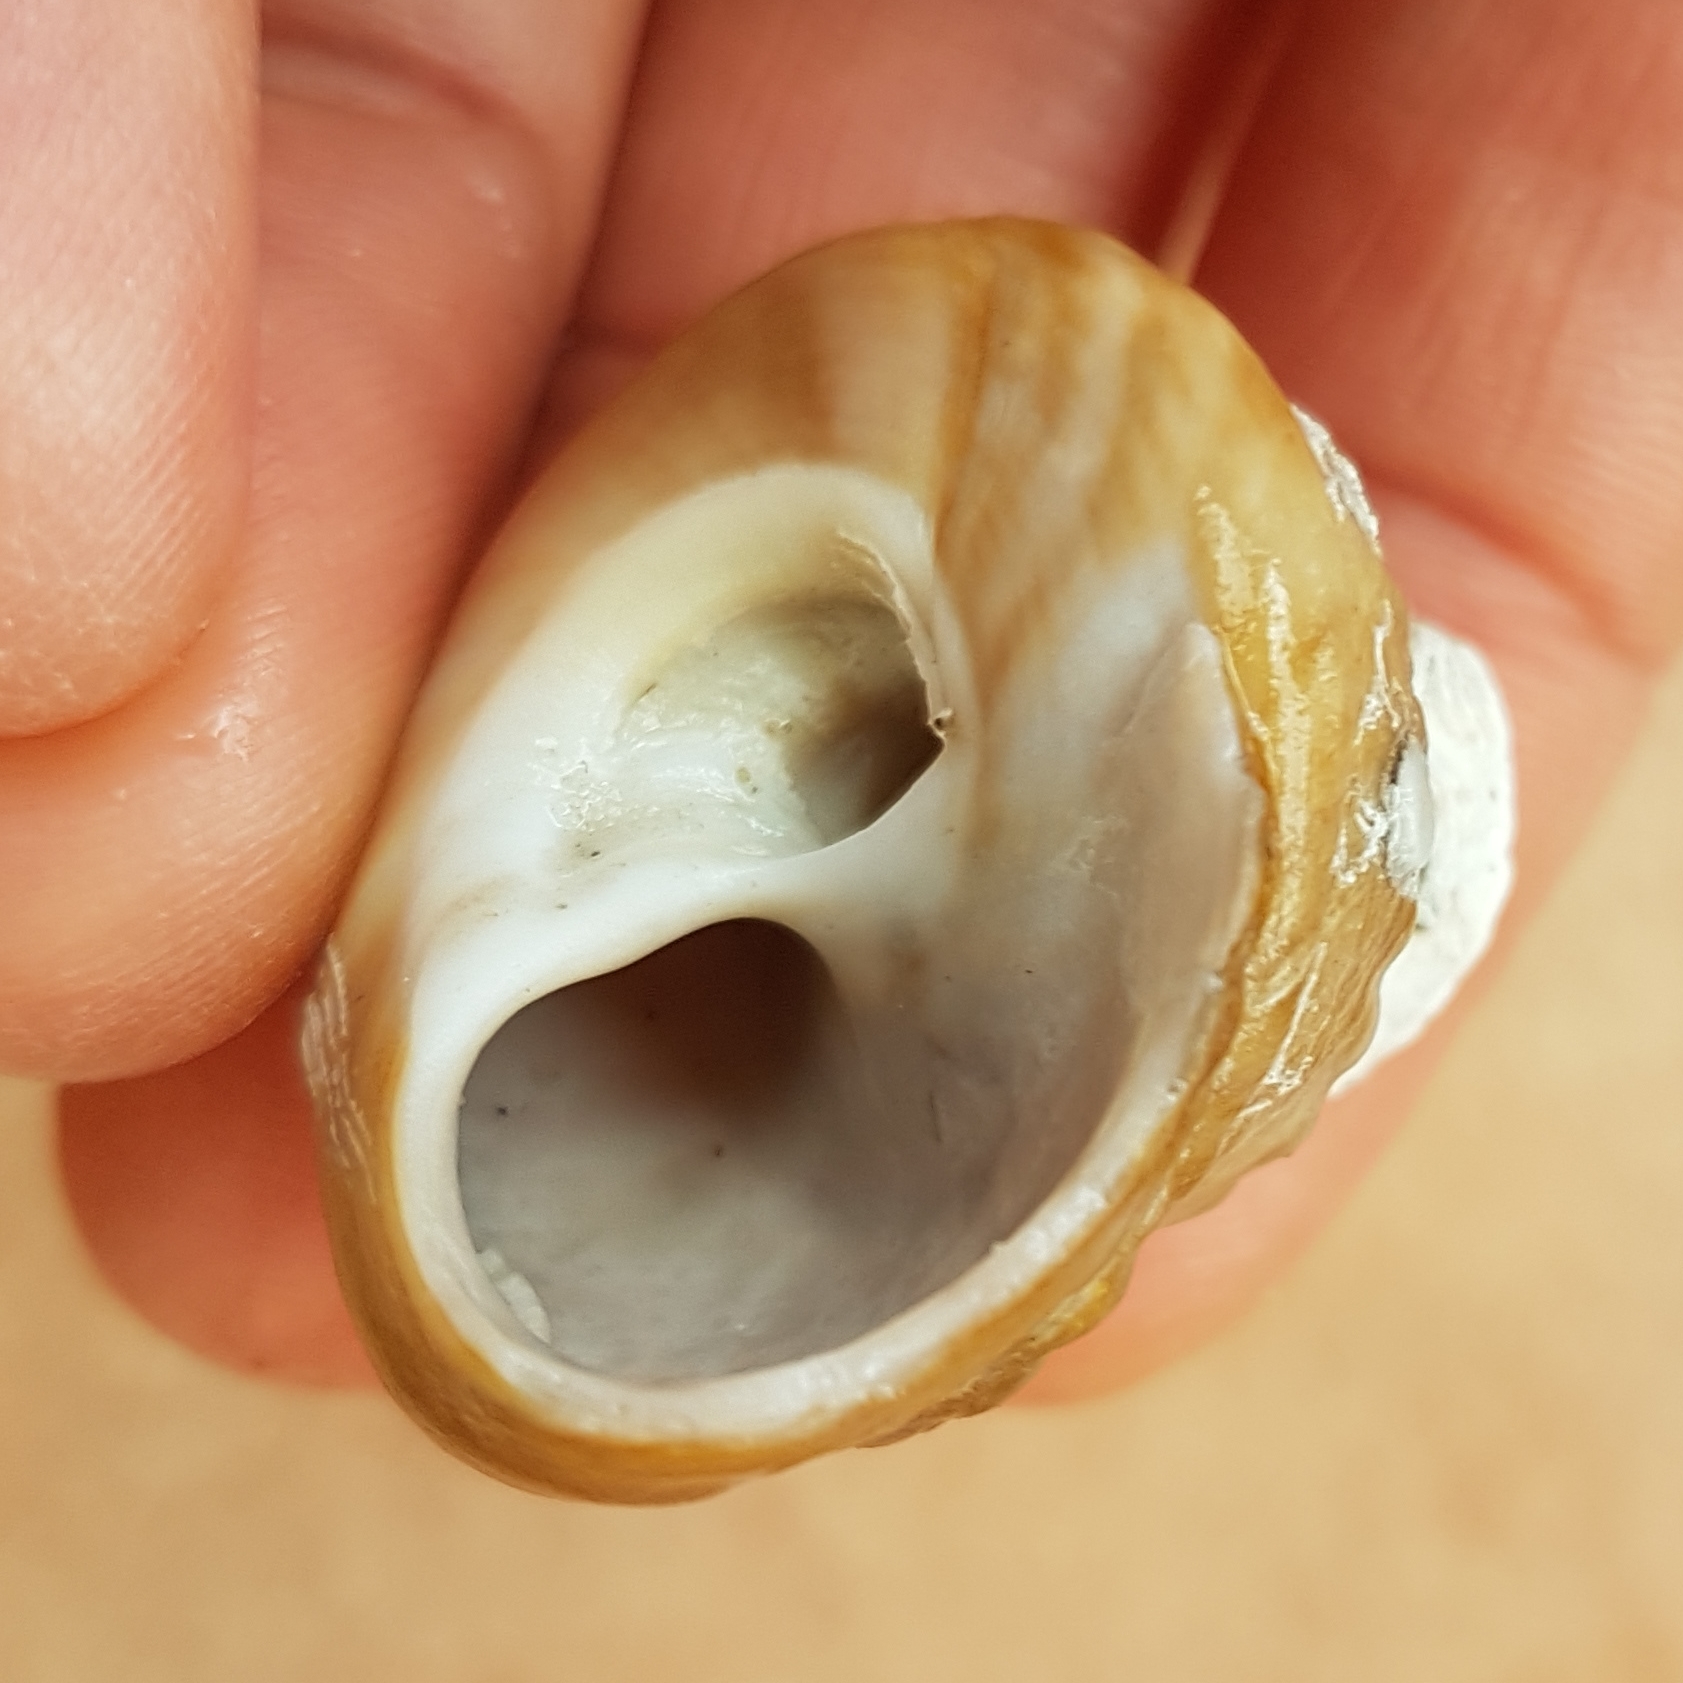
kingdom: Animalia
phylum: Mollusca
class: Gastropoda
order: Trochida
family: Trochidae
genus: Gibbula
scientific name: Gibbula magus
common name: Turban top shell
